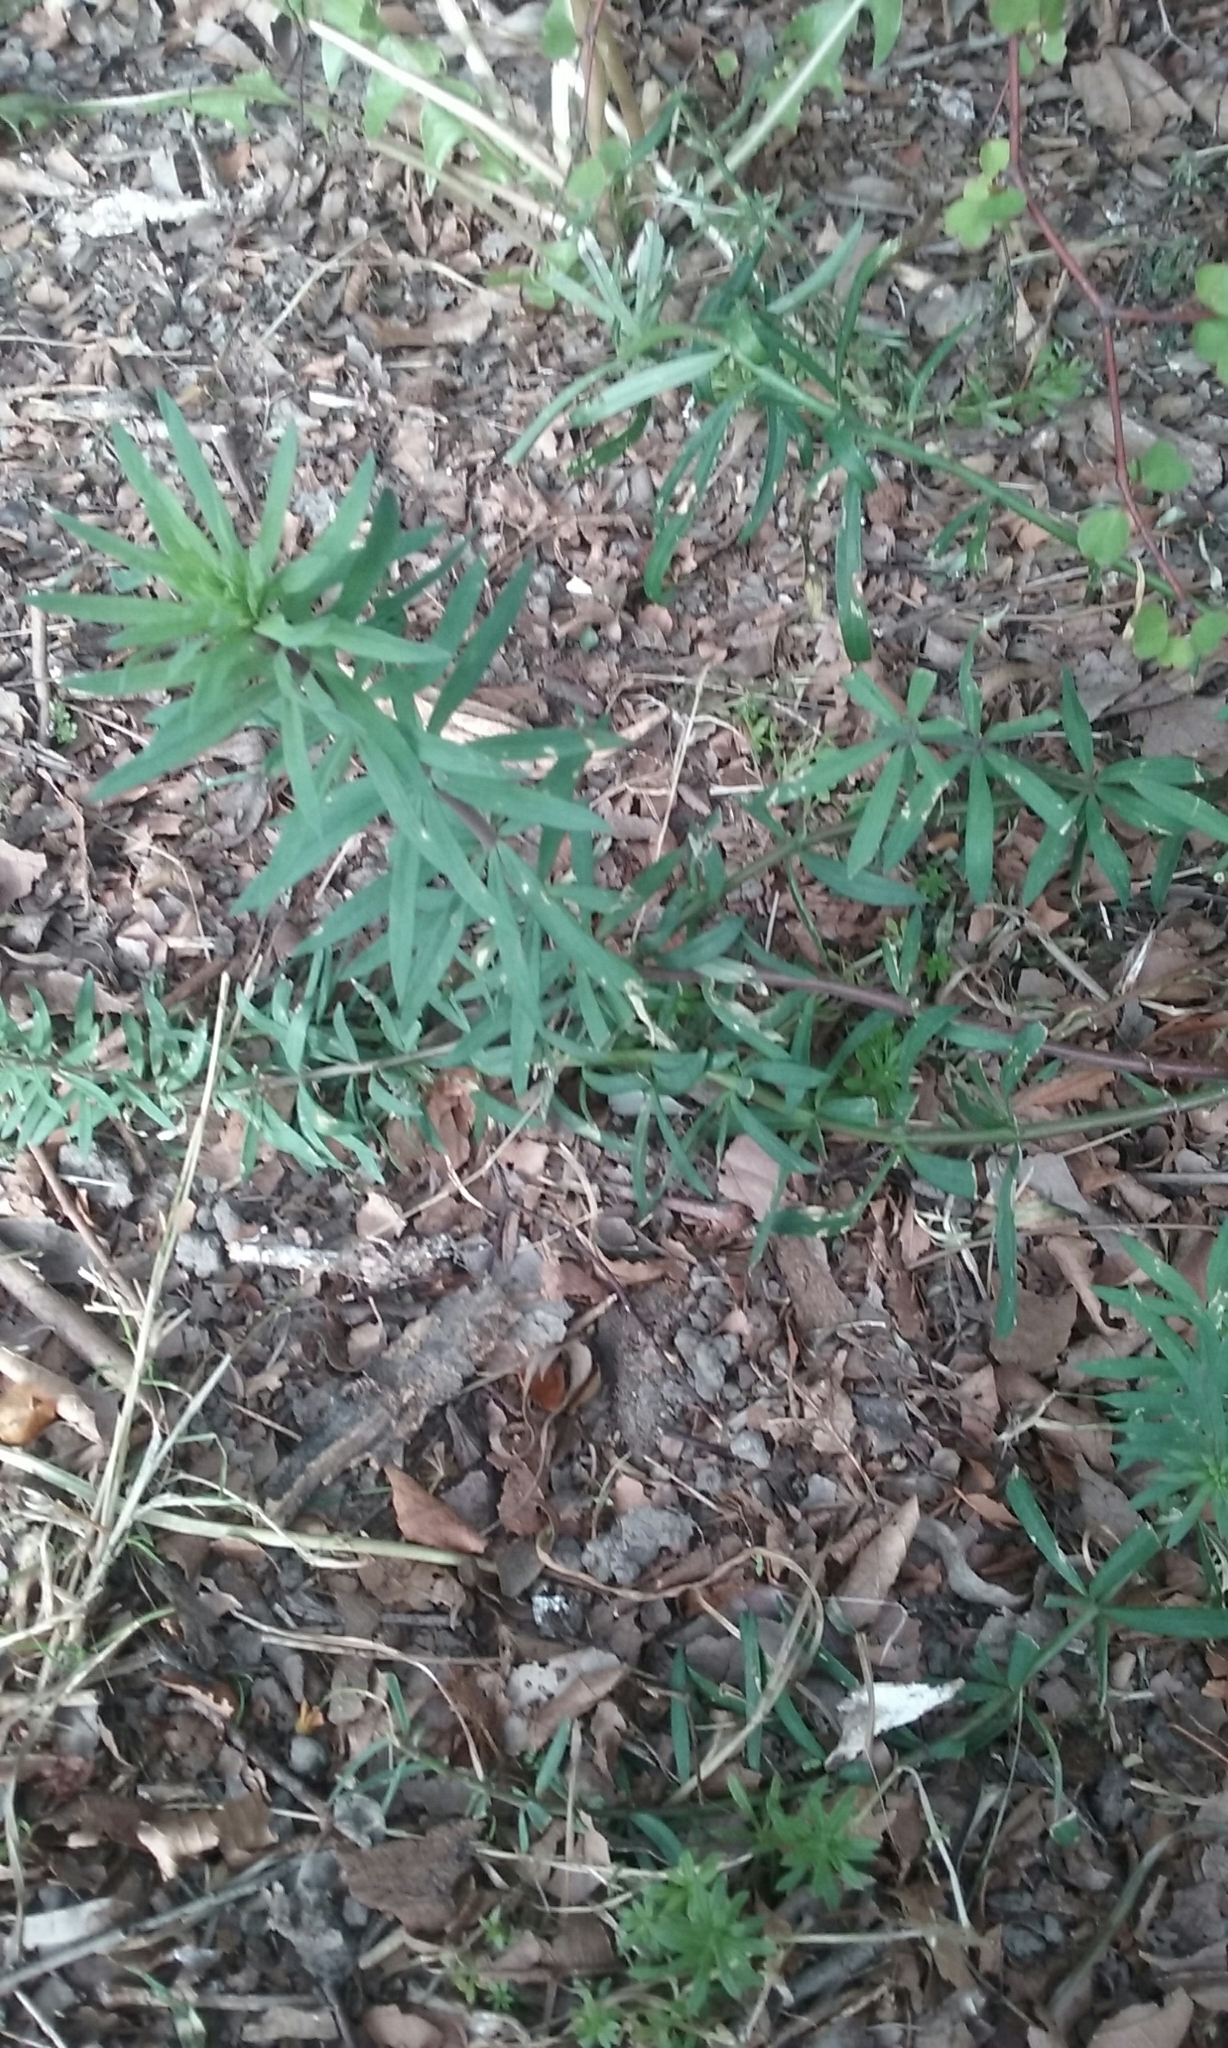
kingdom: Plantae
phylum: Tracheophyta
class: Magnoliopsida
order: Lamiales
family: Plantaginaceae
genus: Linaria
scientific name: Linaria purpurea
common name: Purple toadflax
